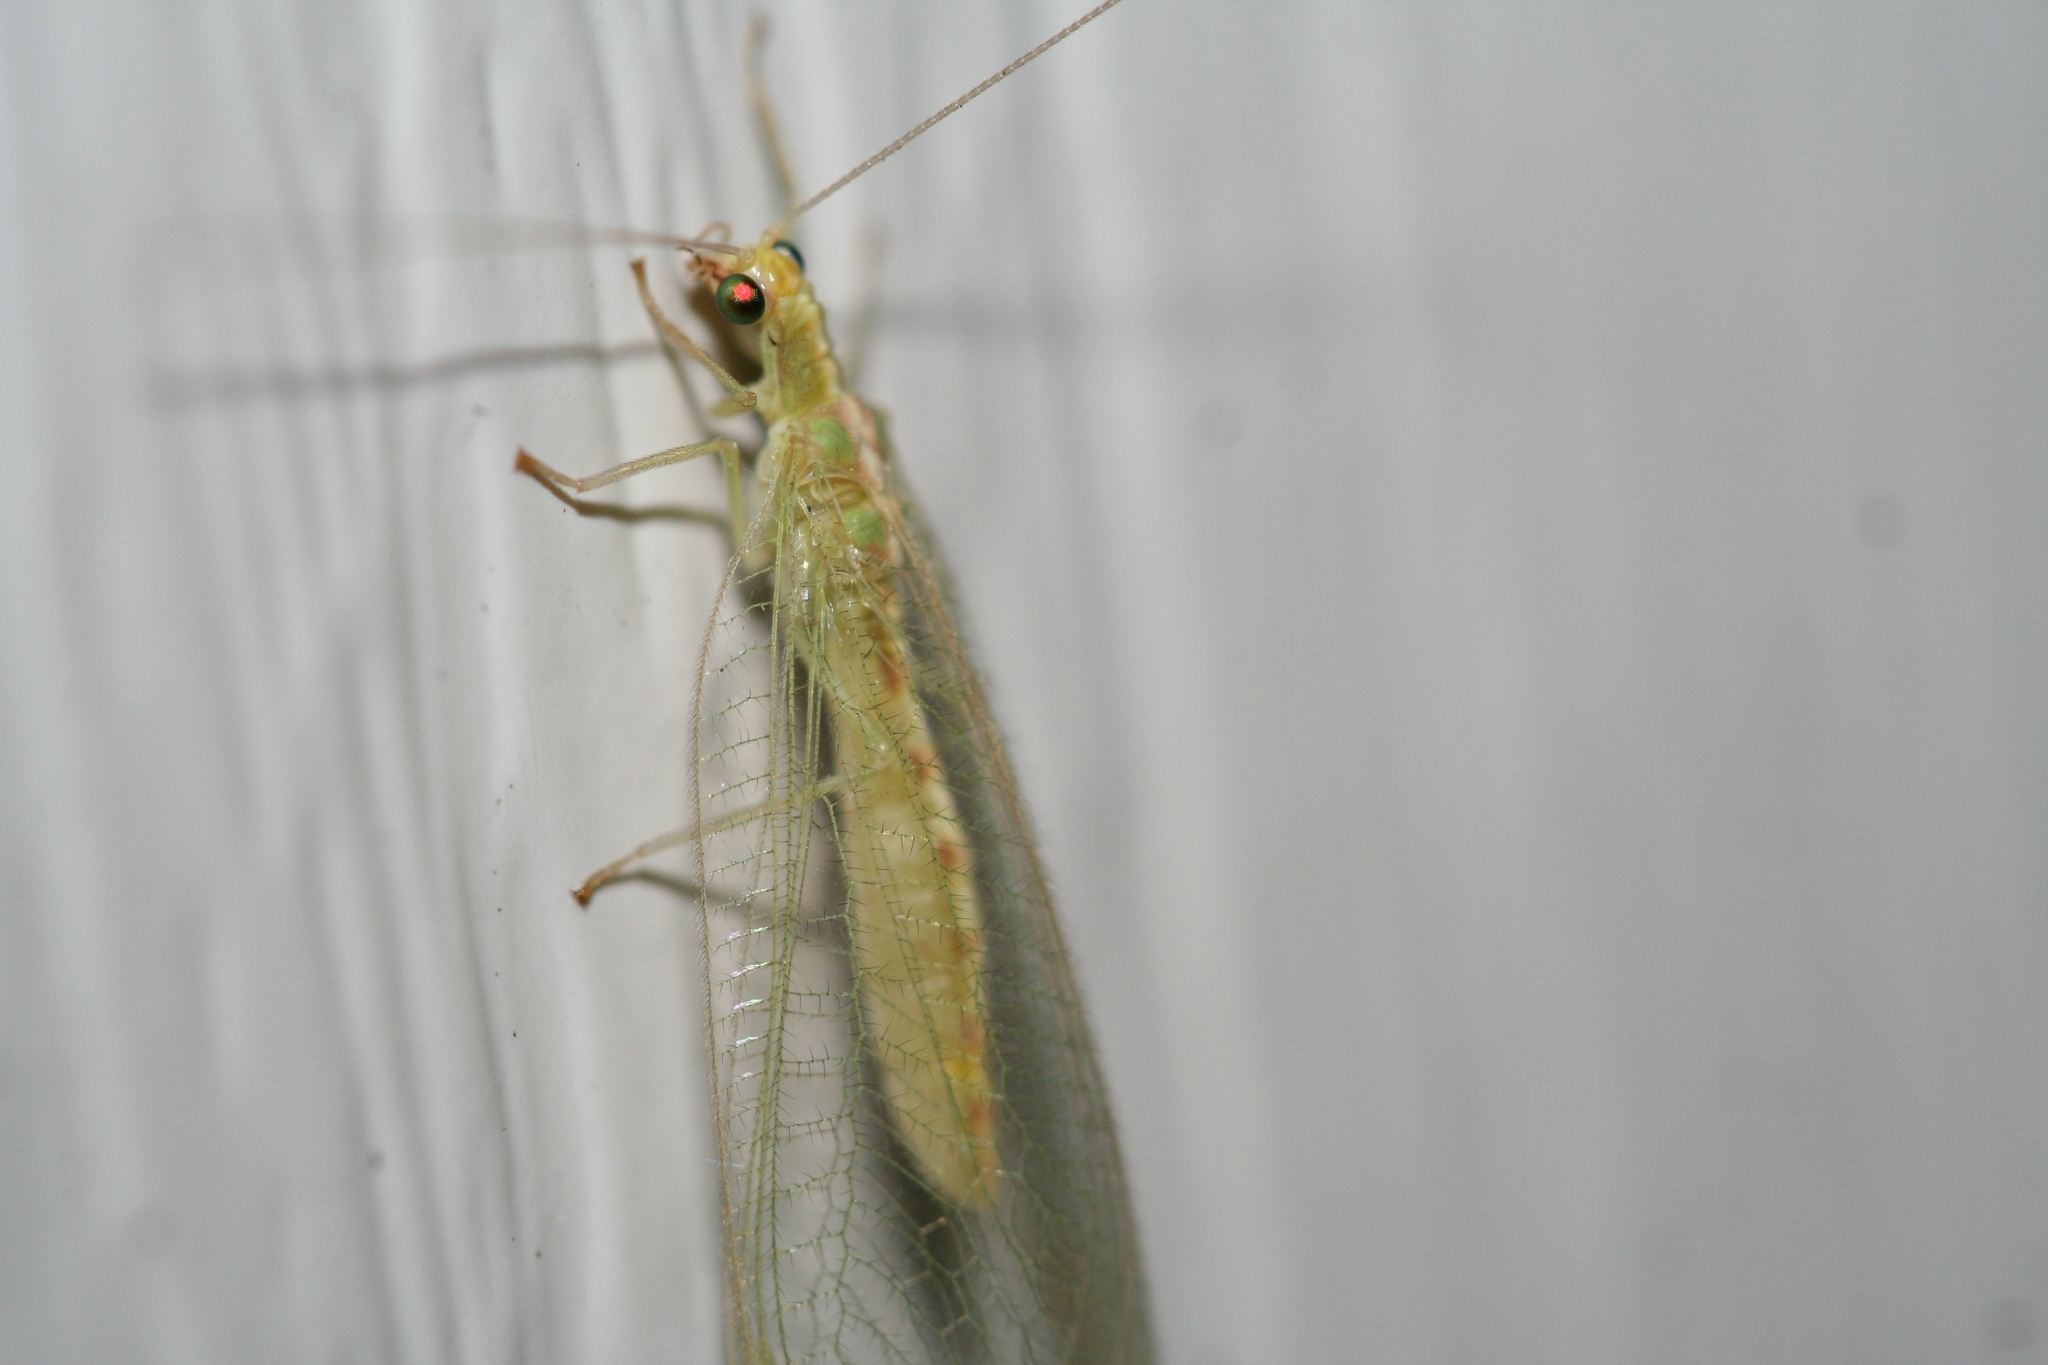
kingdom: Animalia
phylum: Arthropoda
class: Insecta
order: Neuroptera
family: Chrysopidae
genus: Chrysoperla
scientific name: Chrysoperla
